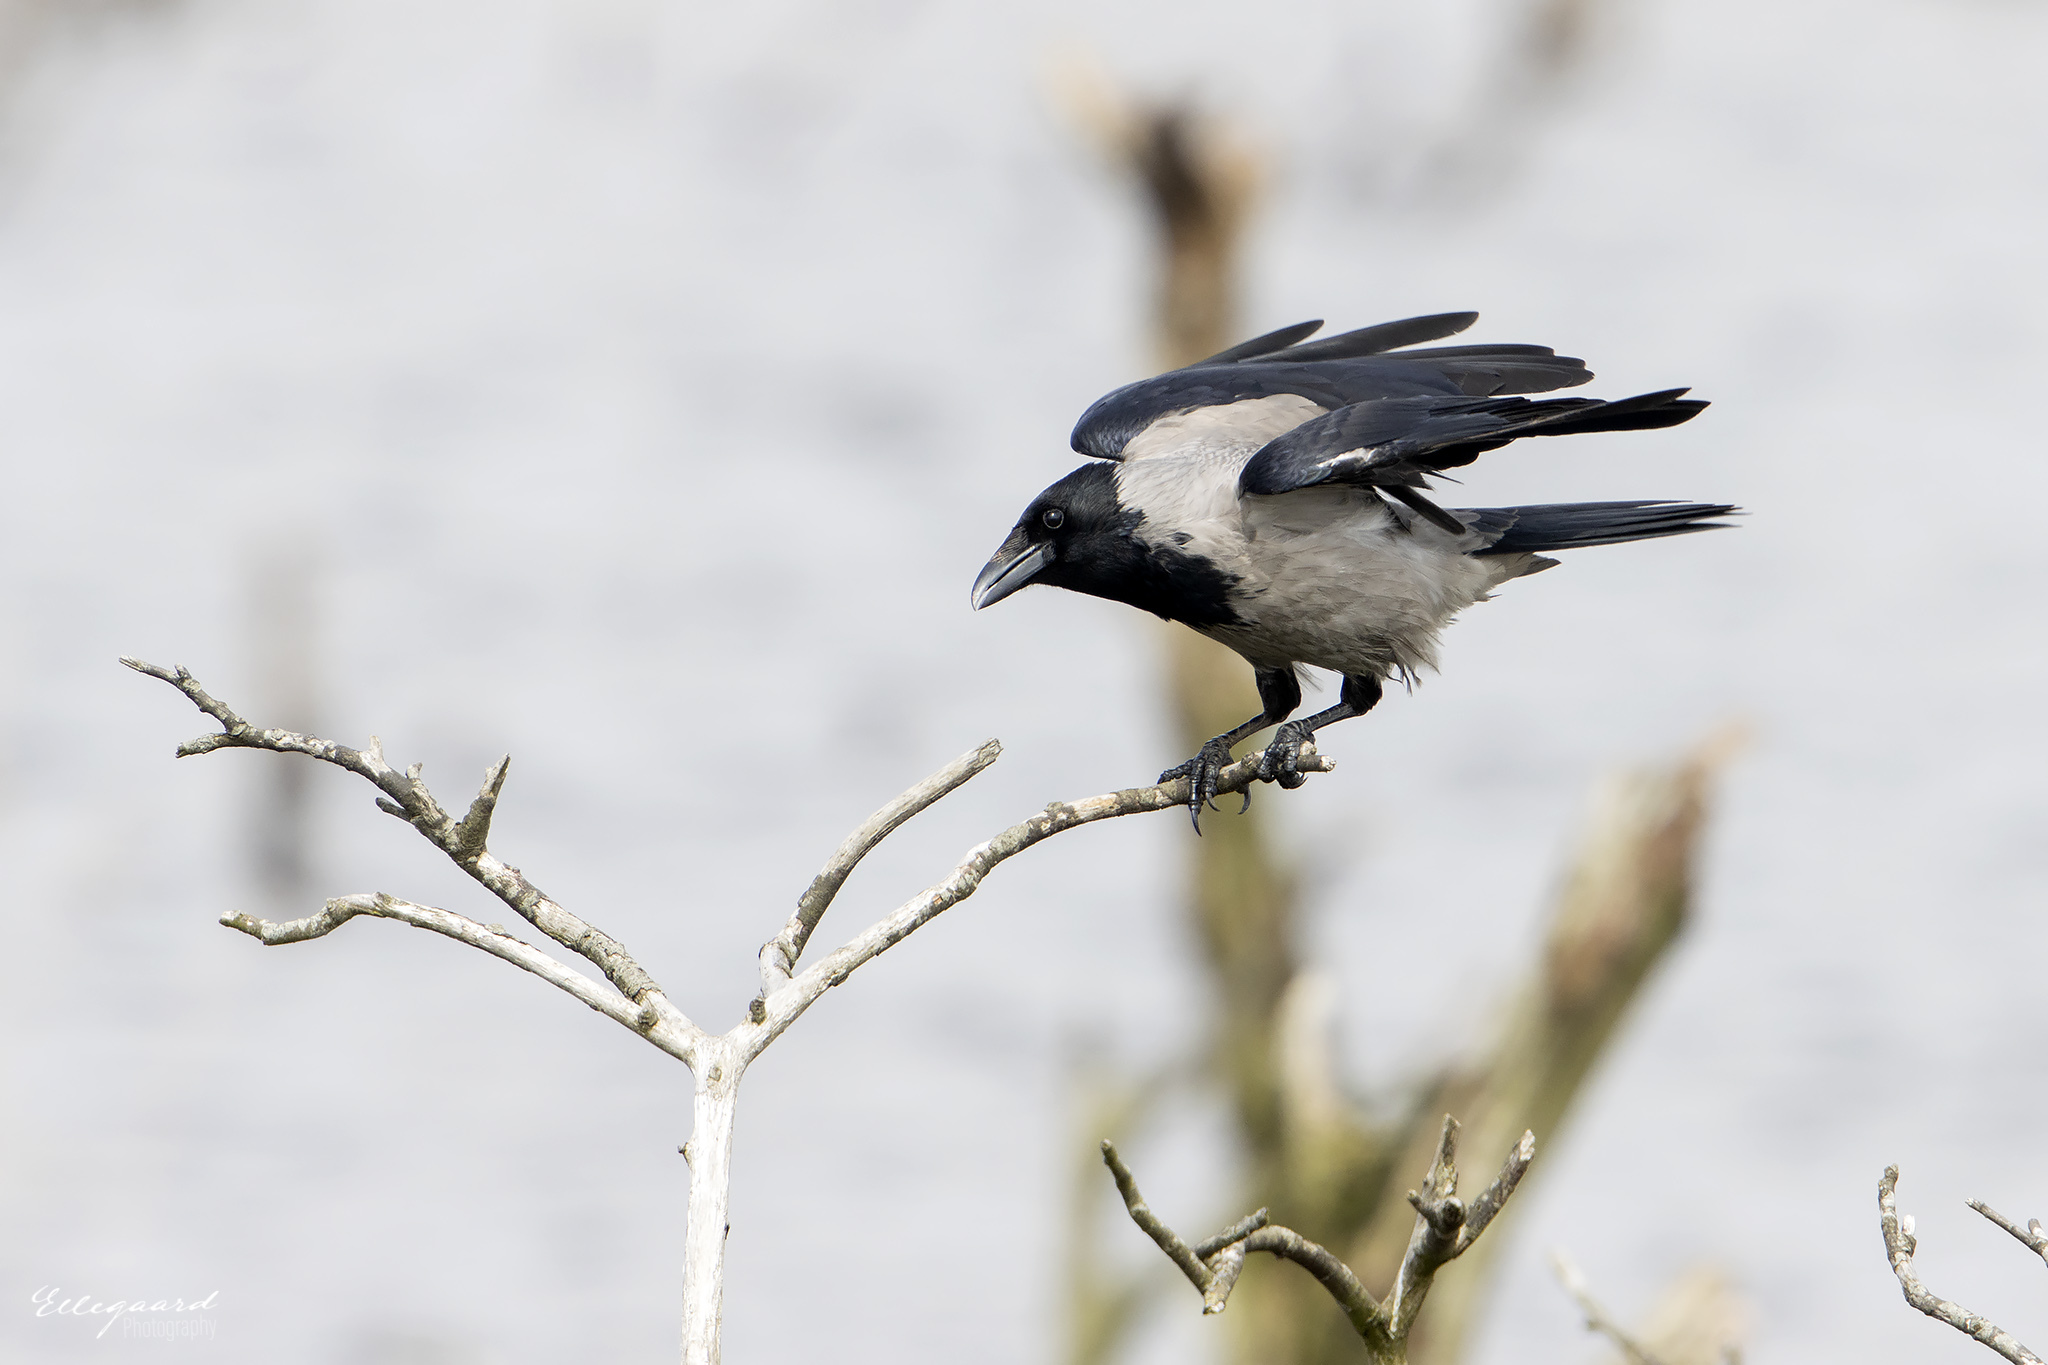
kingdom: Animalia
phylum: Chordata
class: Aves
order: Passeriformes
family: Corvidae
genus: Corvus
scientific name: Corvus cornix
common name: Hooded crow
